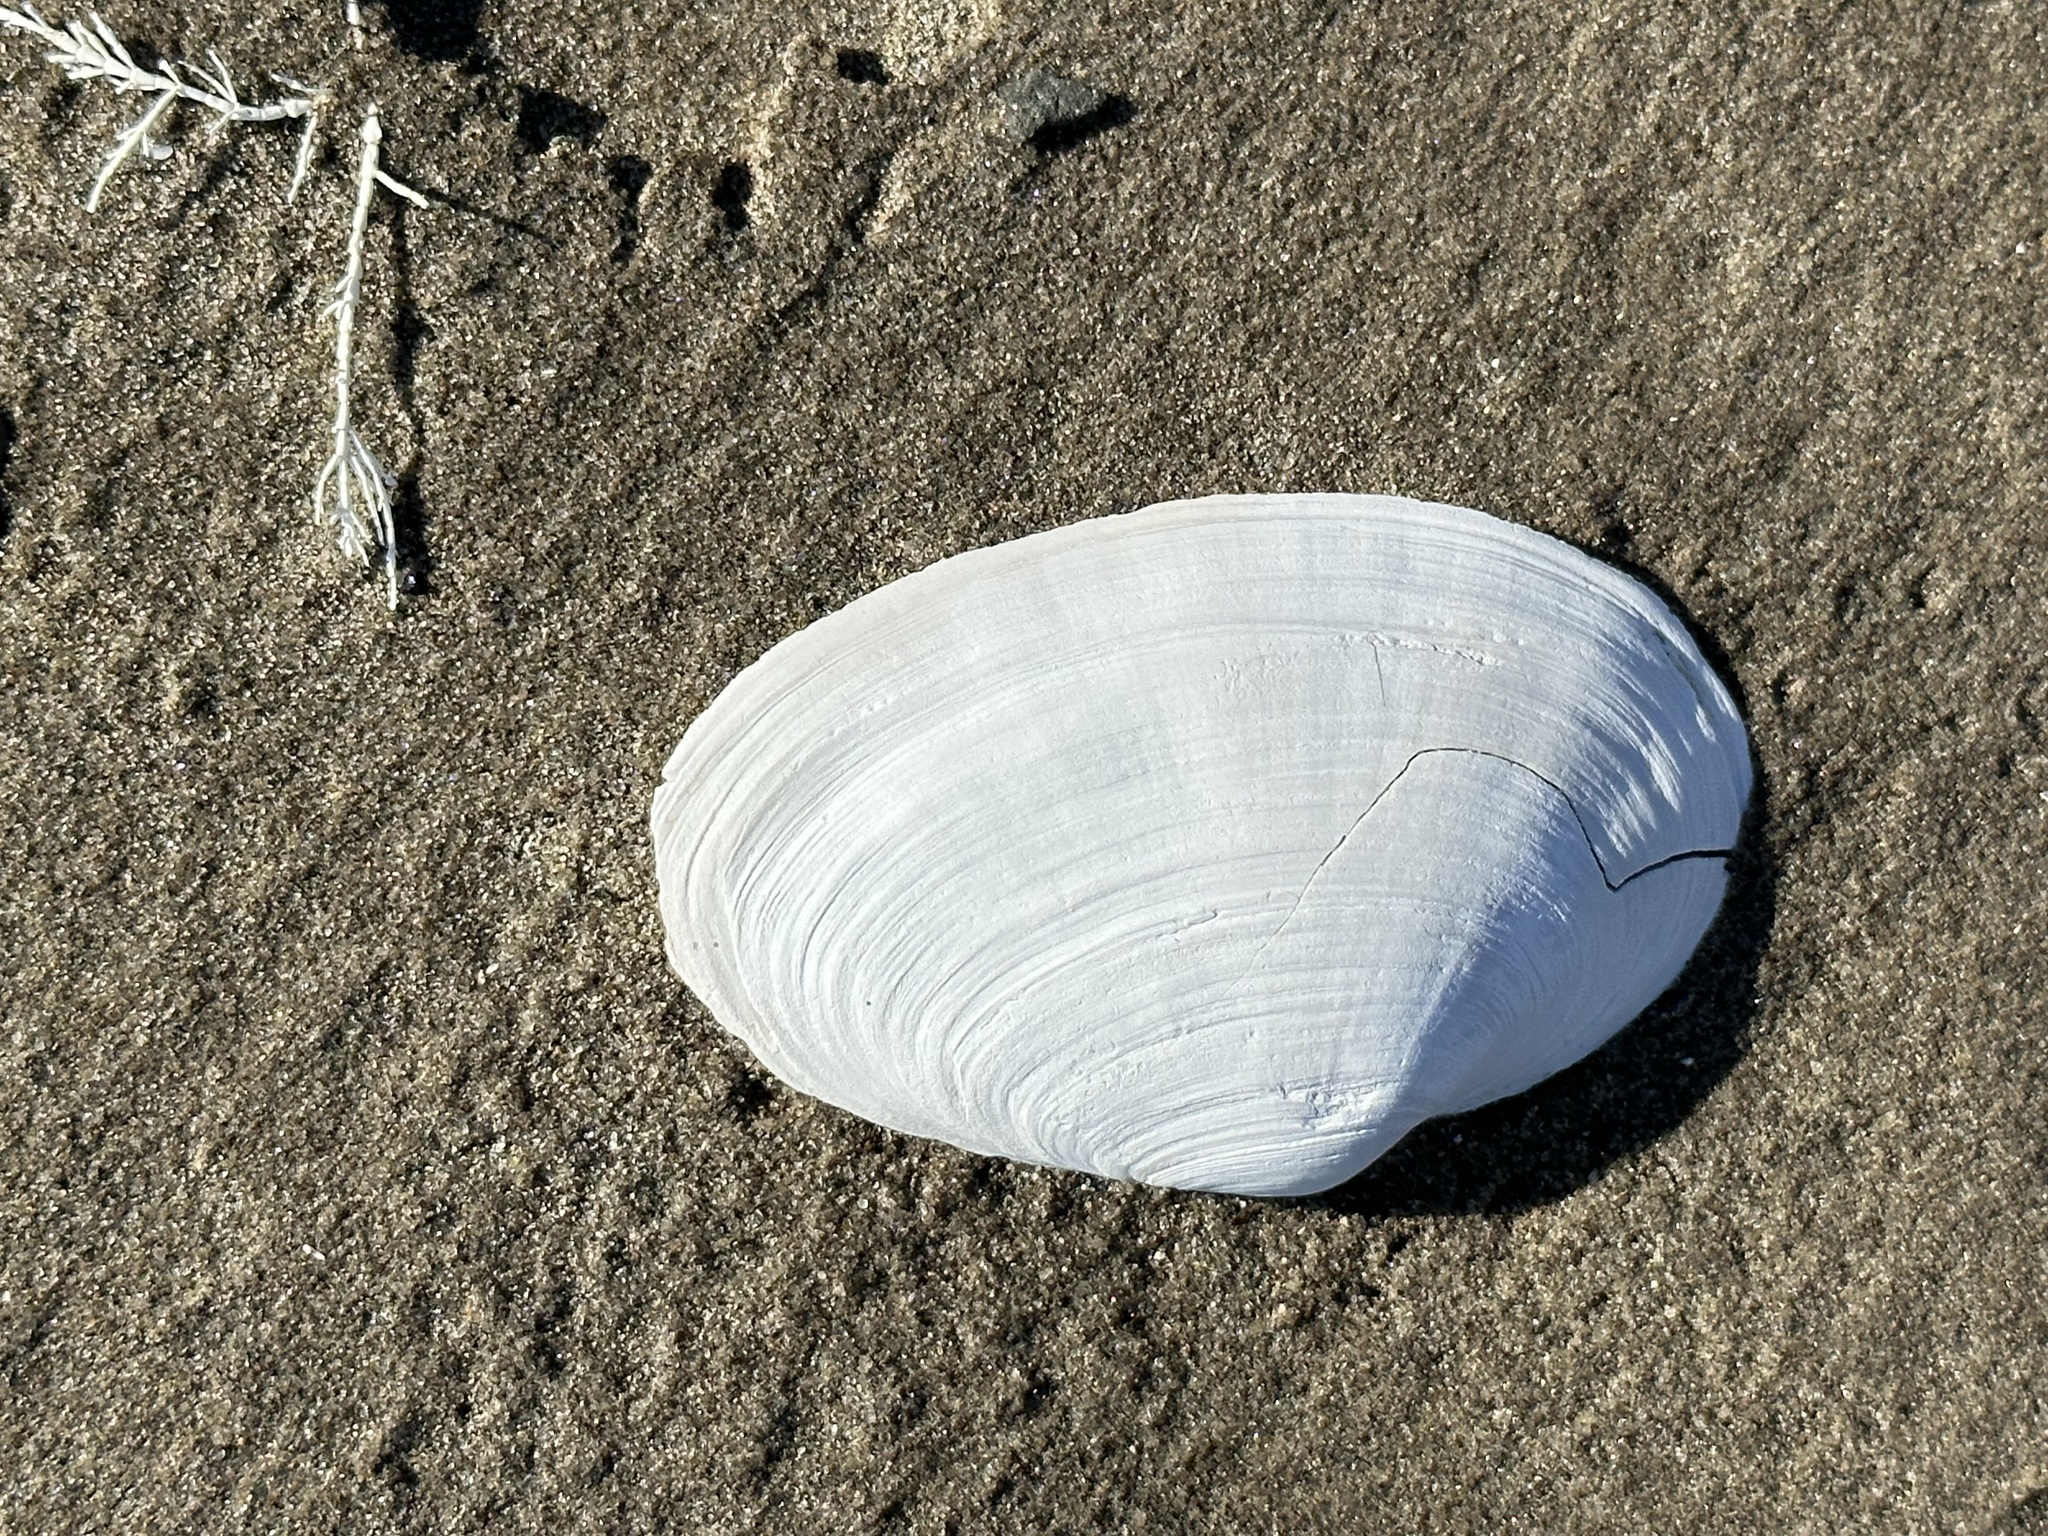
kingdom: Animalia
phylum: Mollusca
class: Bivalvia
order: Myida
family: Myidae
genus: Mya
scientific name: Mya arenaria
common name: Soft-shelled clam
